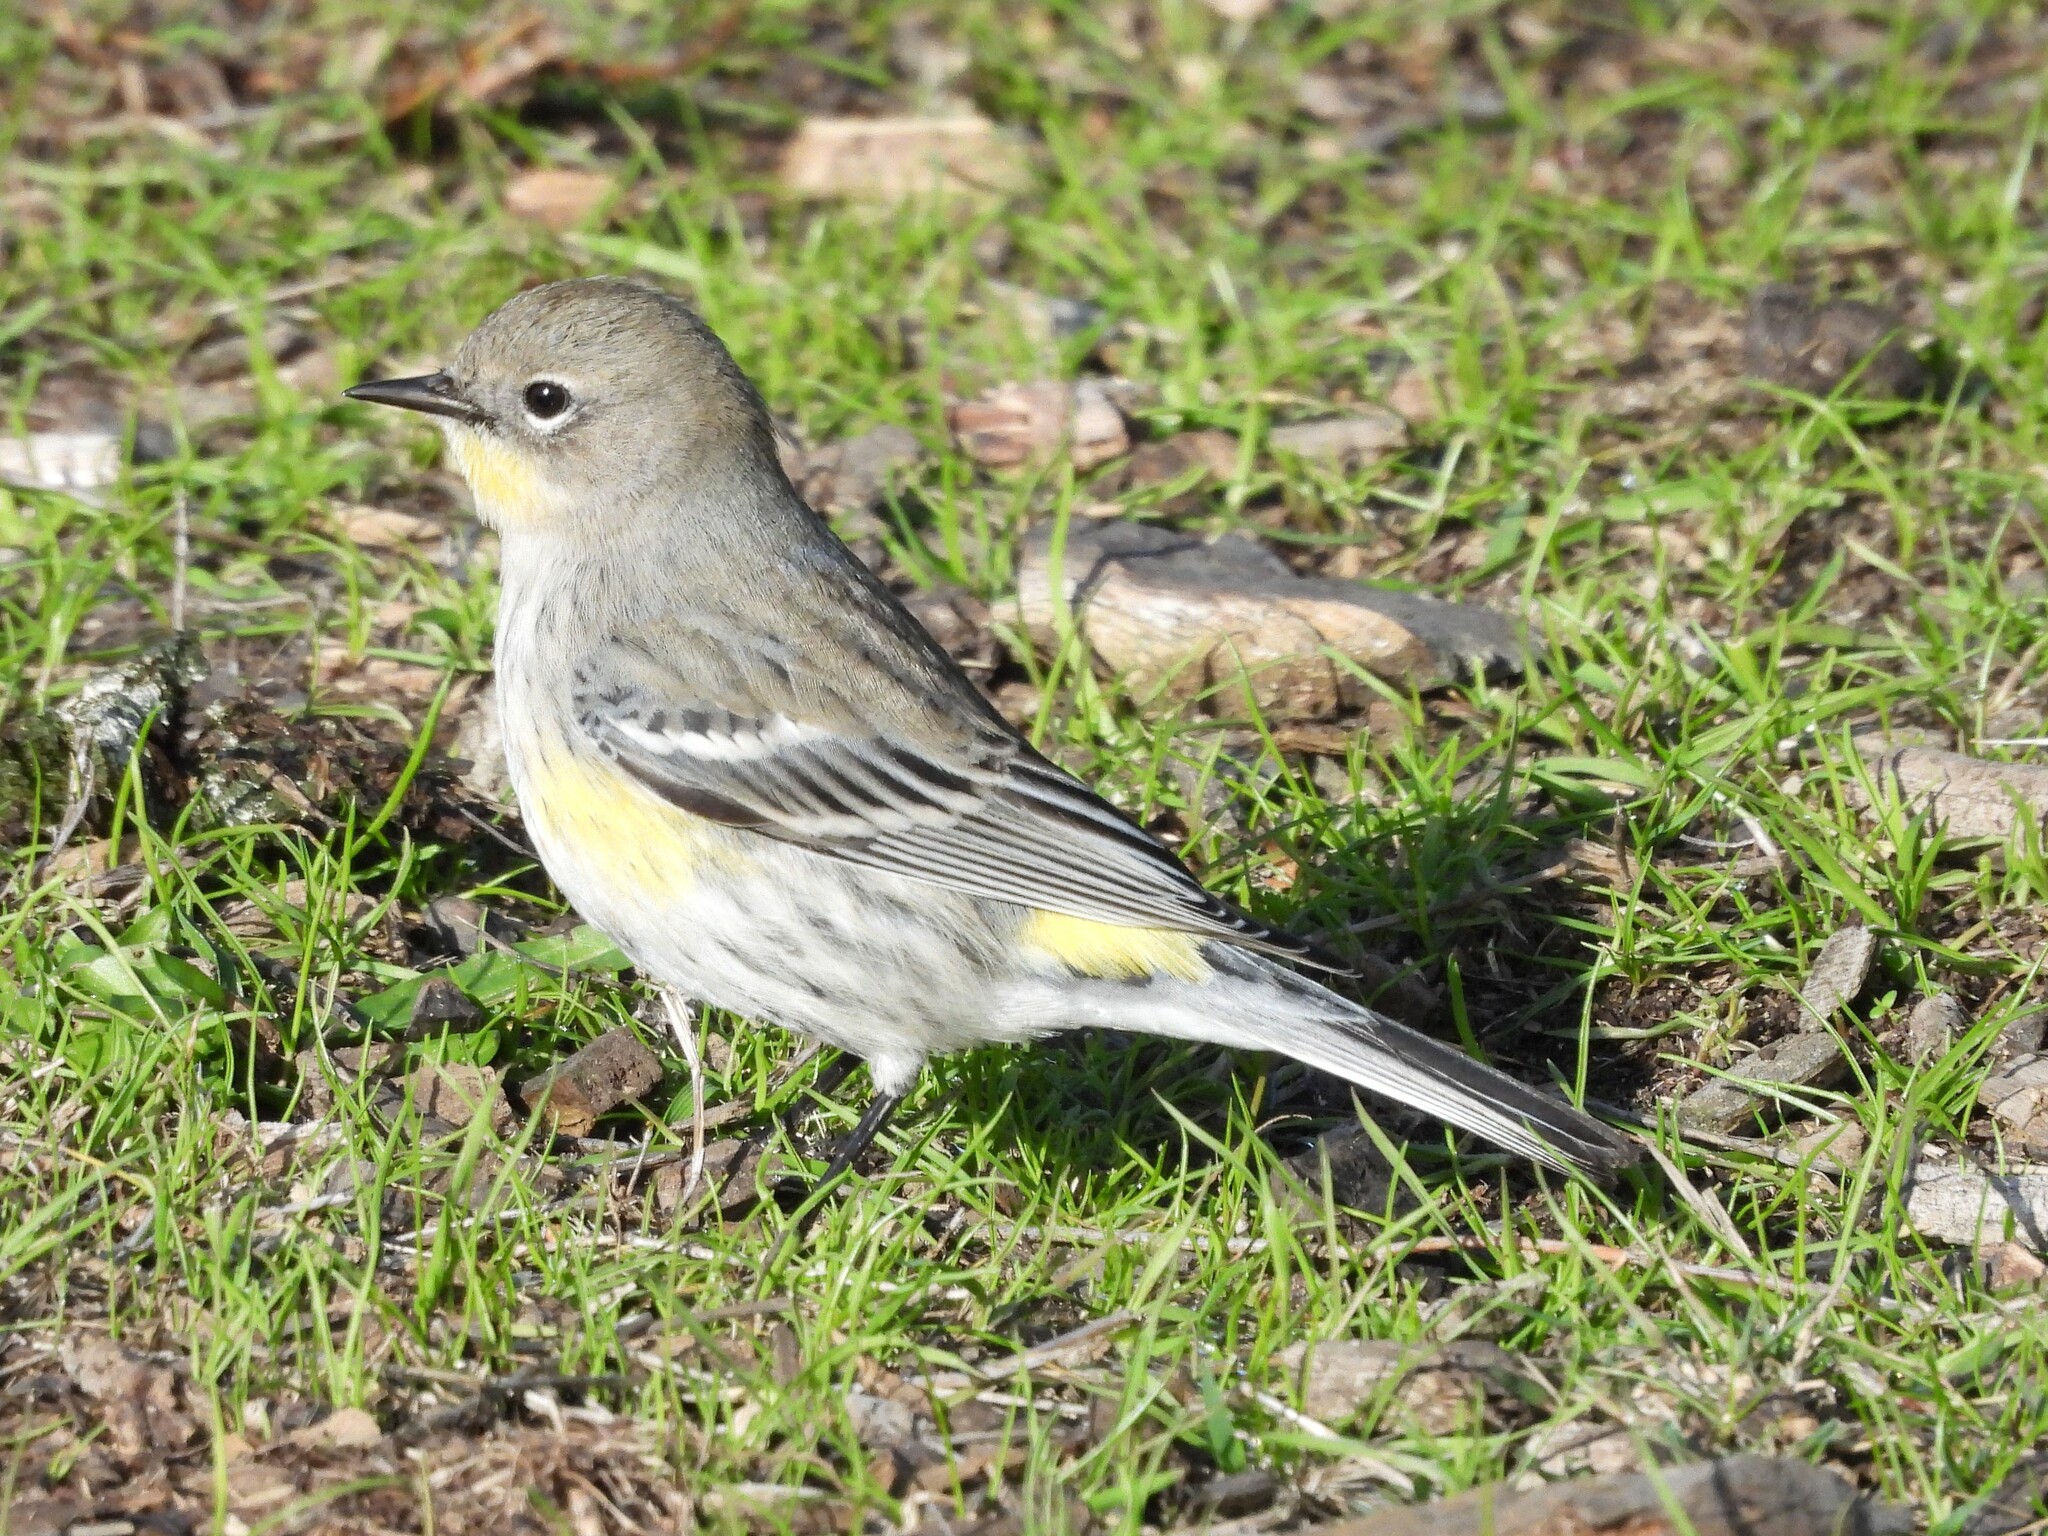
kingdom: Animalia
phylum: Chordata
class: Aves
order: Passeriformes
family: Parulidae
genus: Setophaga
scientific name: Setophaga coronata
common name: Myrtle warbler
